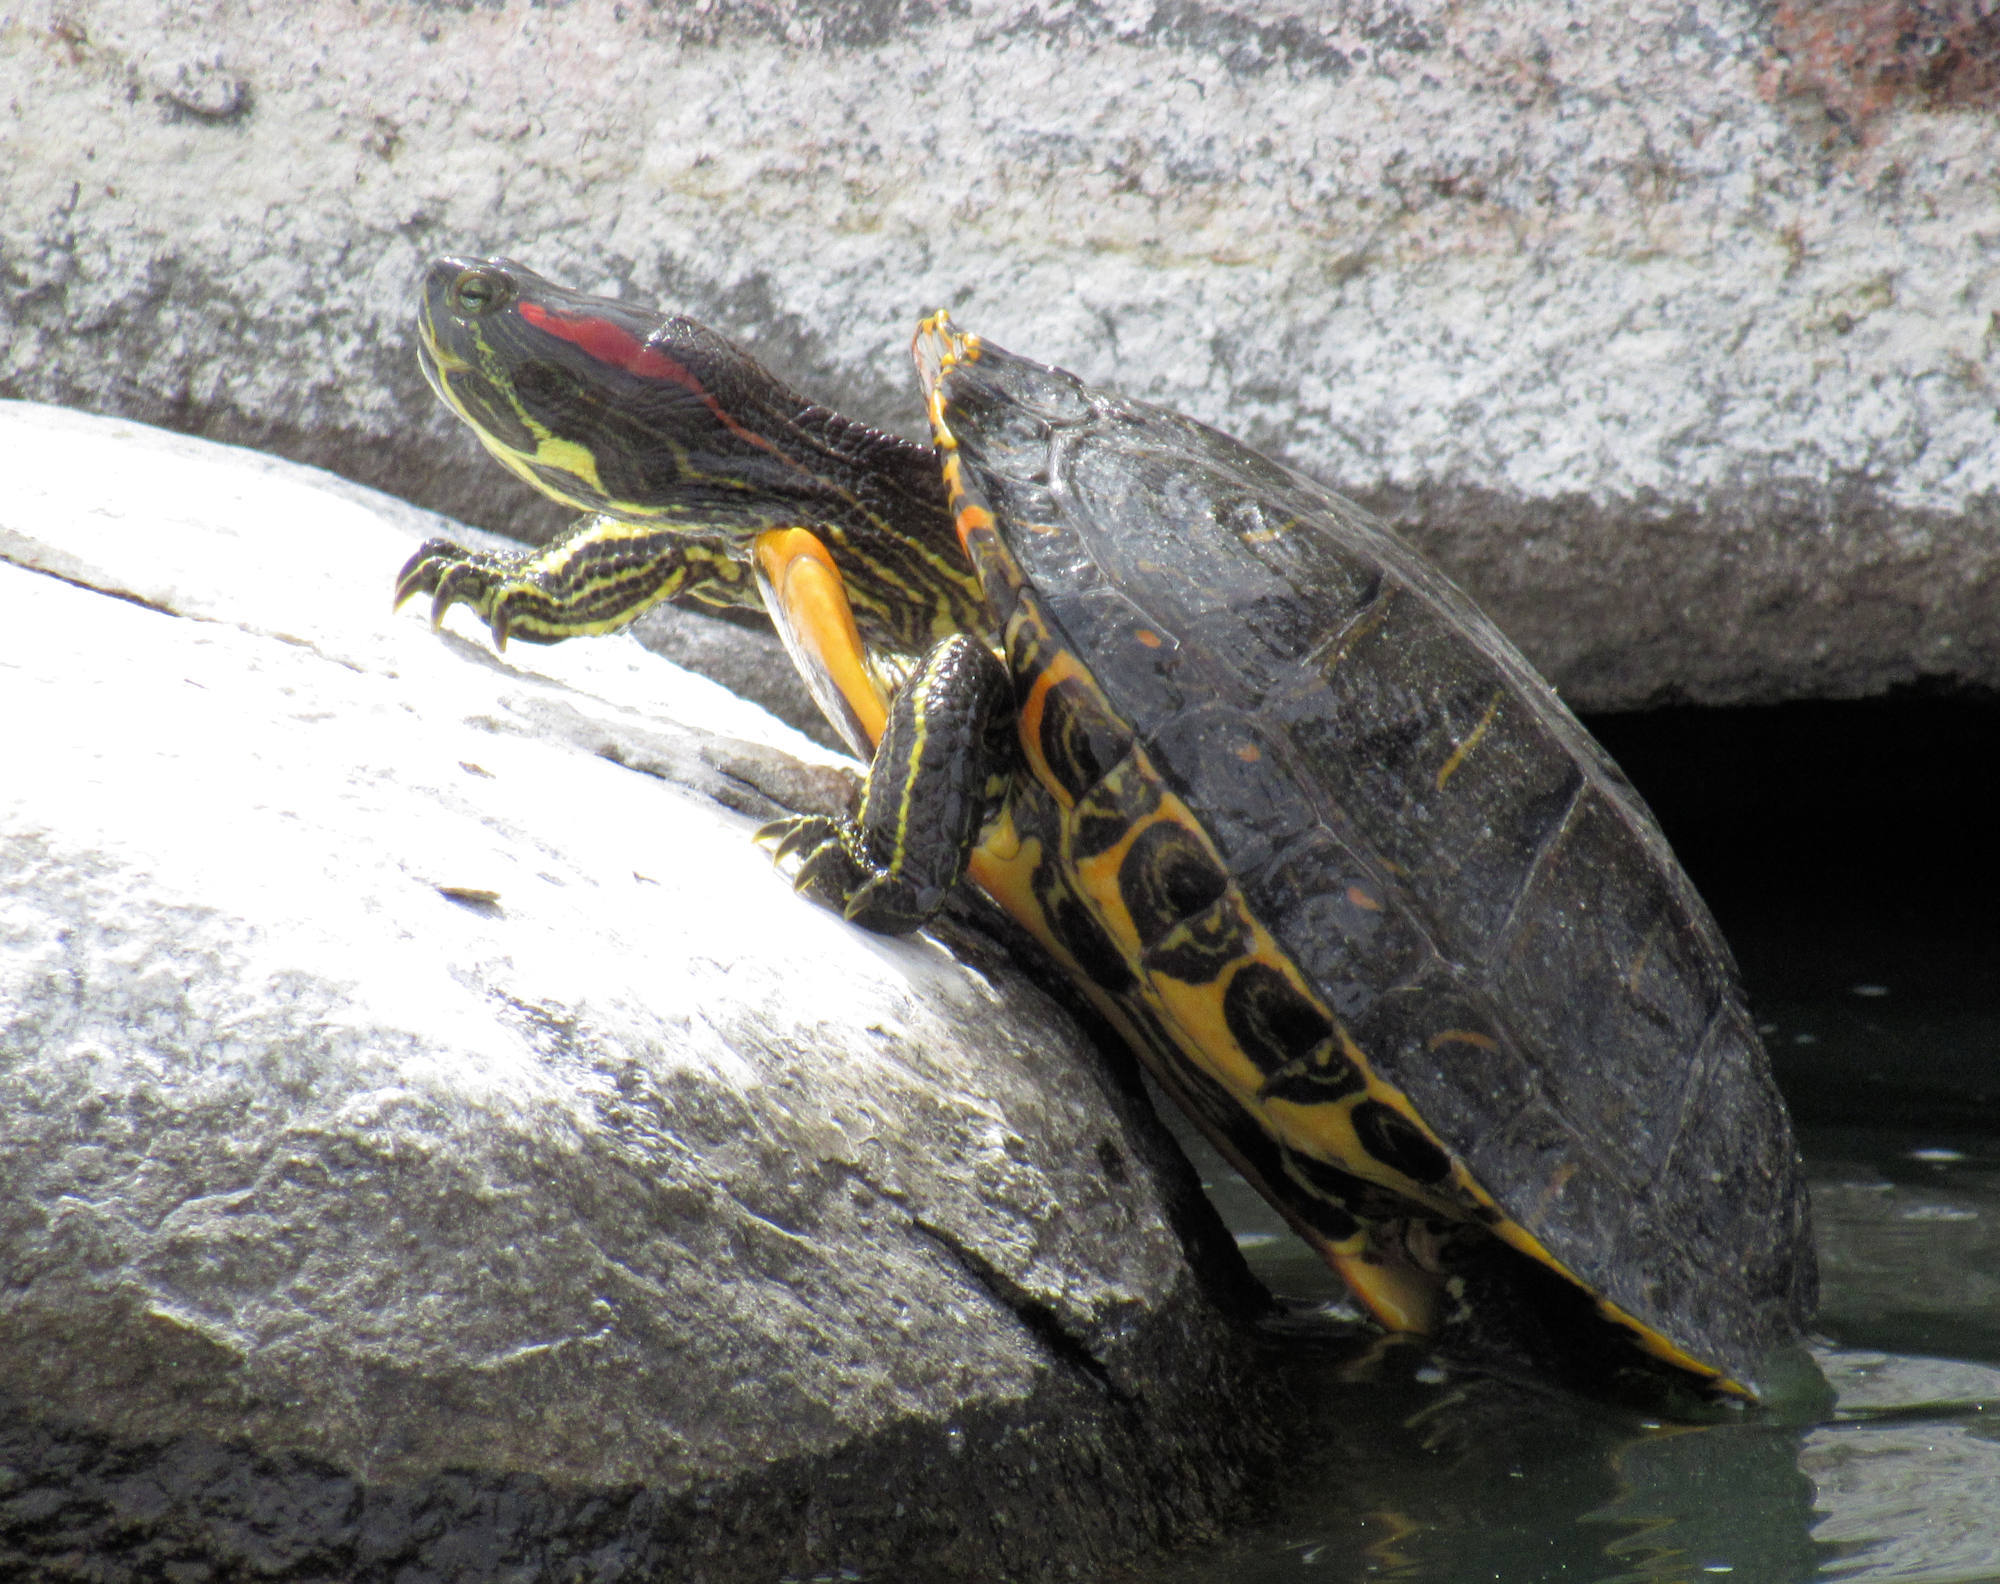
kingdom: Animalia
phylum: Chordata
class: Testudines
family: Emydidae
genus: Trachemys
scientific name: Trachemys scripta
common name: Slider
